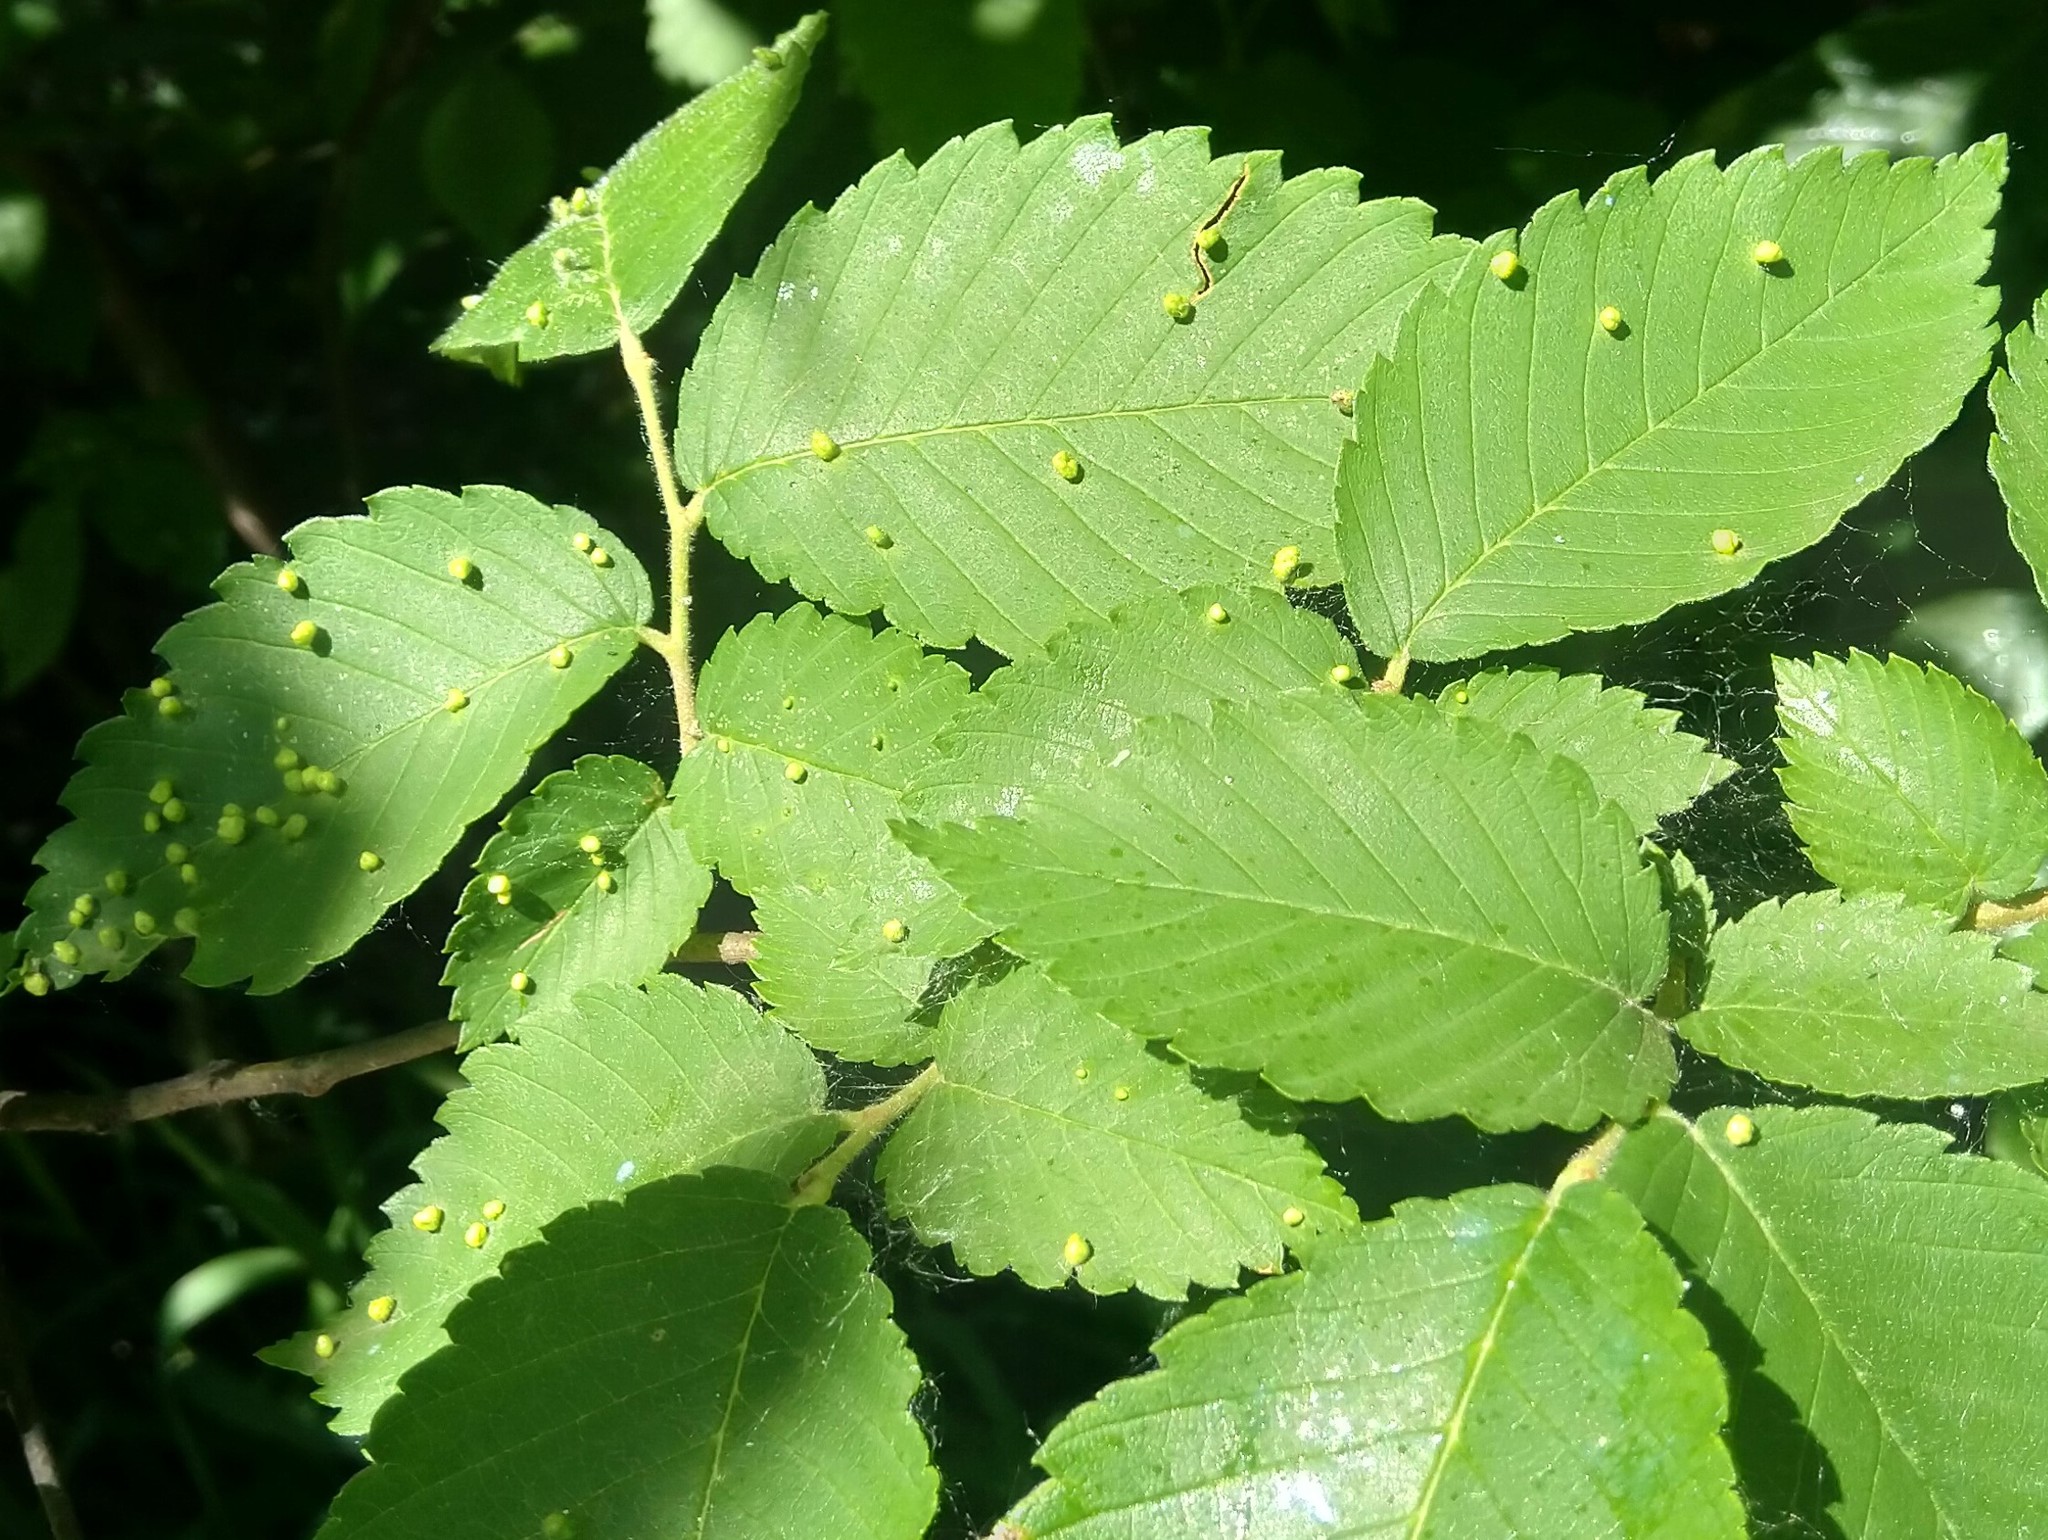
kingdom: Animalia
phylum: Arthropoda
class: Arachnida
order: Trombidiformes
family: Eriophyidae
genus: Aceria
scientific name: Aceria
